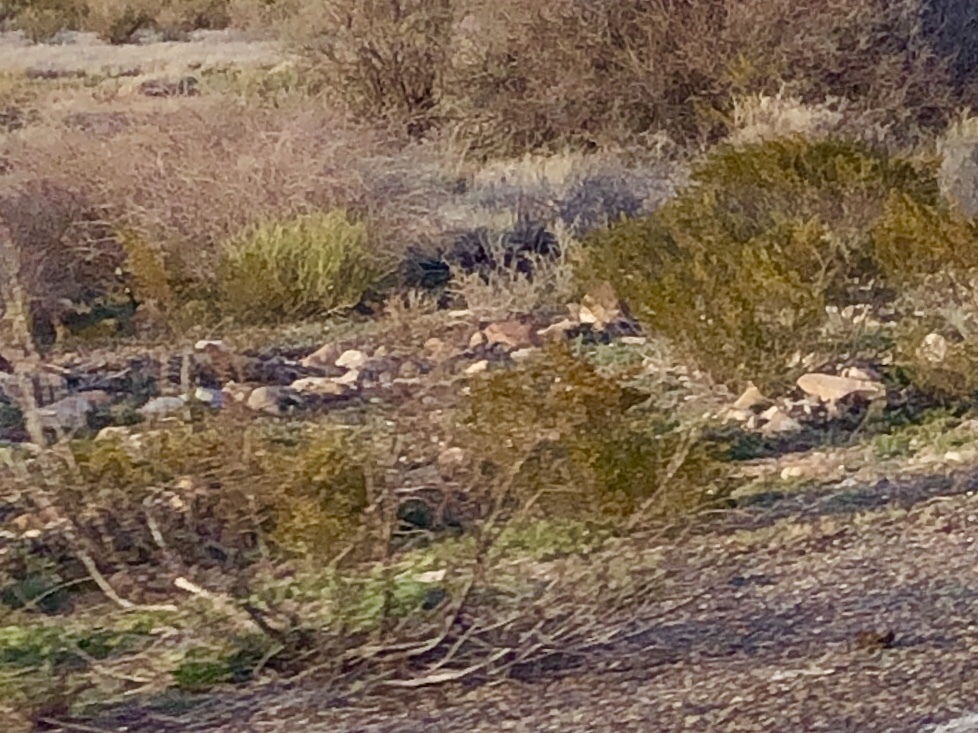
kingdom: Plantae
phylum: Tracheophyta
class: Magnoliopsida
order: Zygophyllales
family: Zygophyllaceae
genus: Larrea
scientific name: Larrea tridentata
